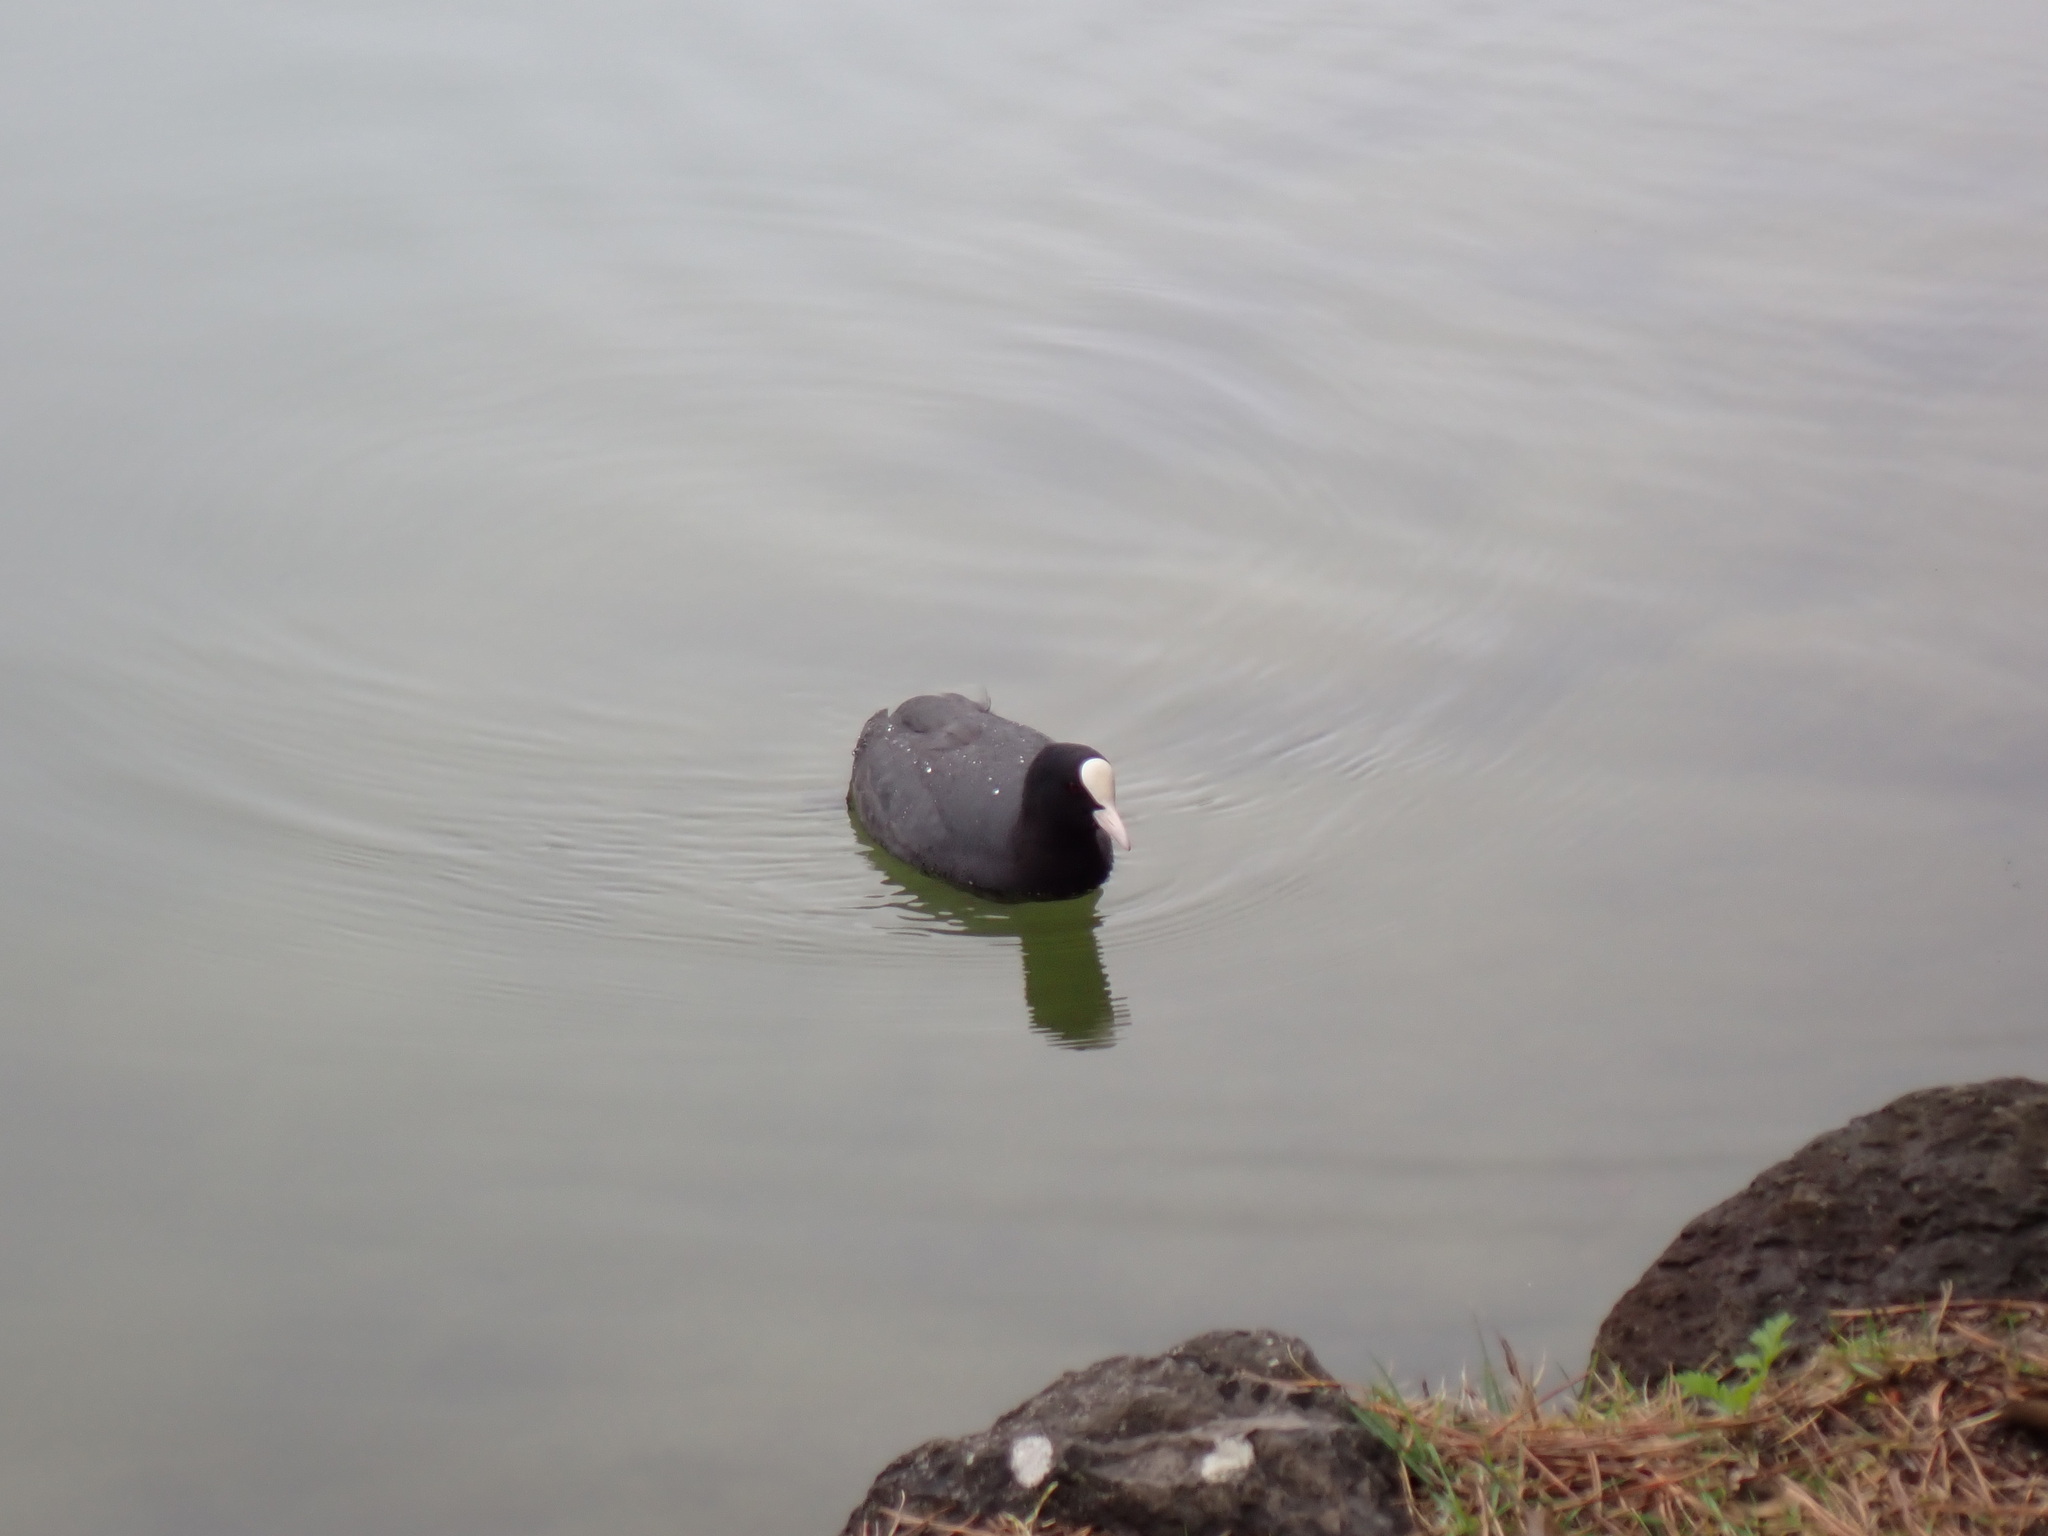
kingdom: Animalia
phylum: Chordata
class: Aves
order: Gruiformes
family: Rallidae
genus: Fulica
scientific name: Fulica atra
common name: Eurasian coot
